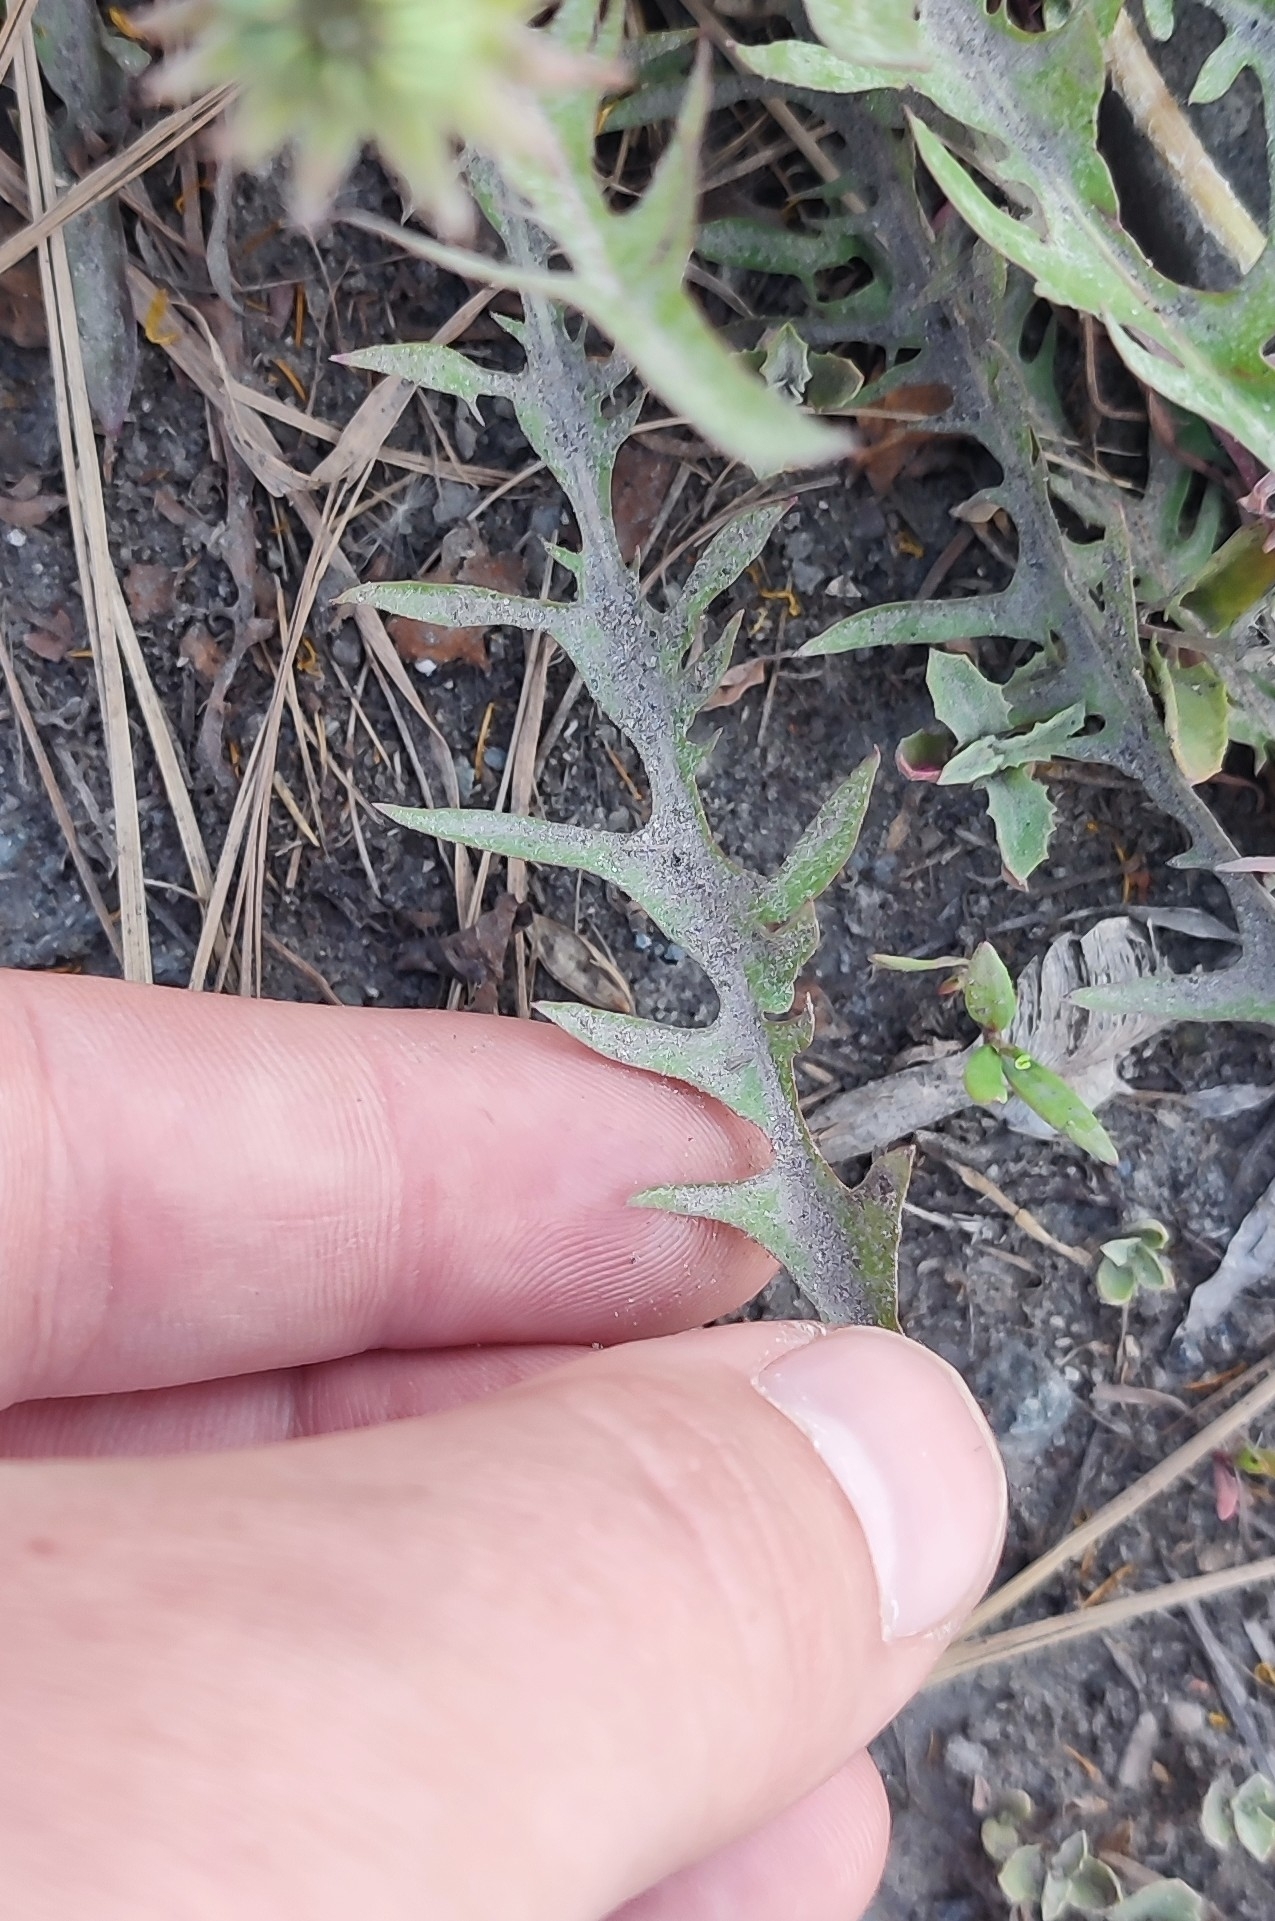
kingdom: Plantae
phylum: Tracheophyta
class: Magnoliopsida
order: Asterales
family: Asteraceae
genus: Taraxacum
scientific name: Taraxacum scariosum
